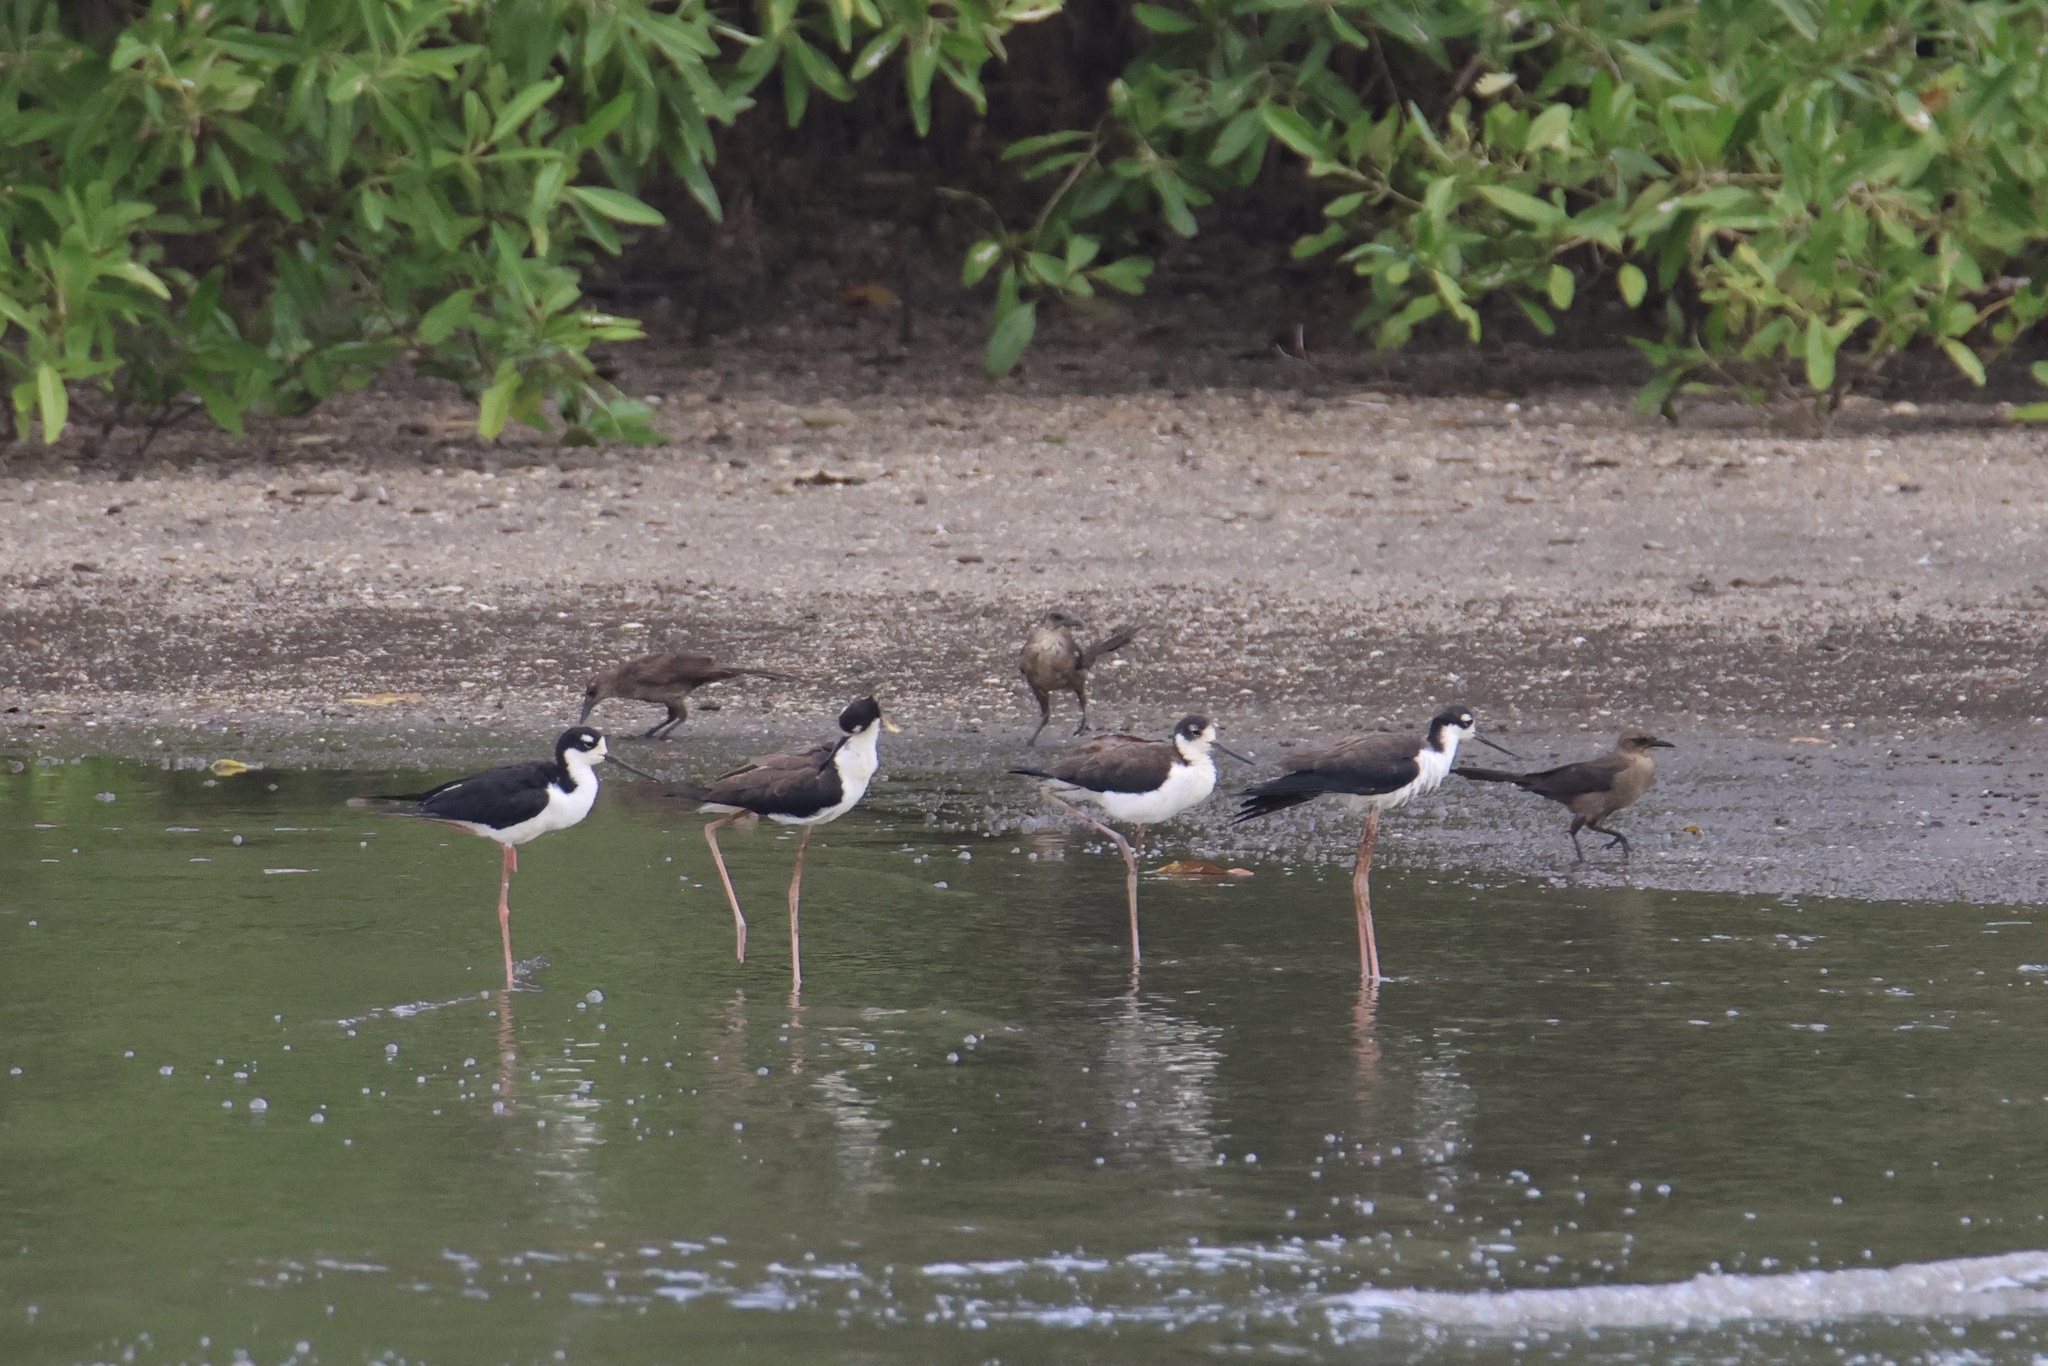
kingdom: Animalia
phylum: Chordata
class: Aves
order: Charadriiformes
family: Recurvirostridae
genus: Himantopus
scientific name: Himantopus mexicanus
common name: Black-necked stilt
